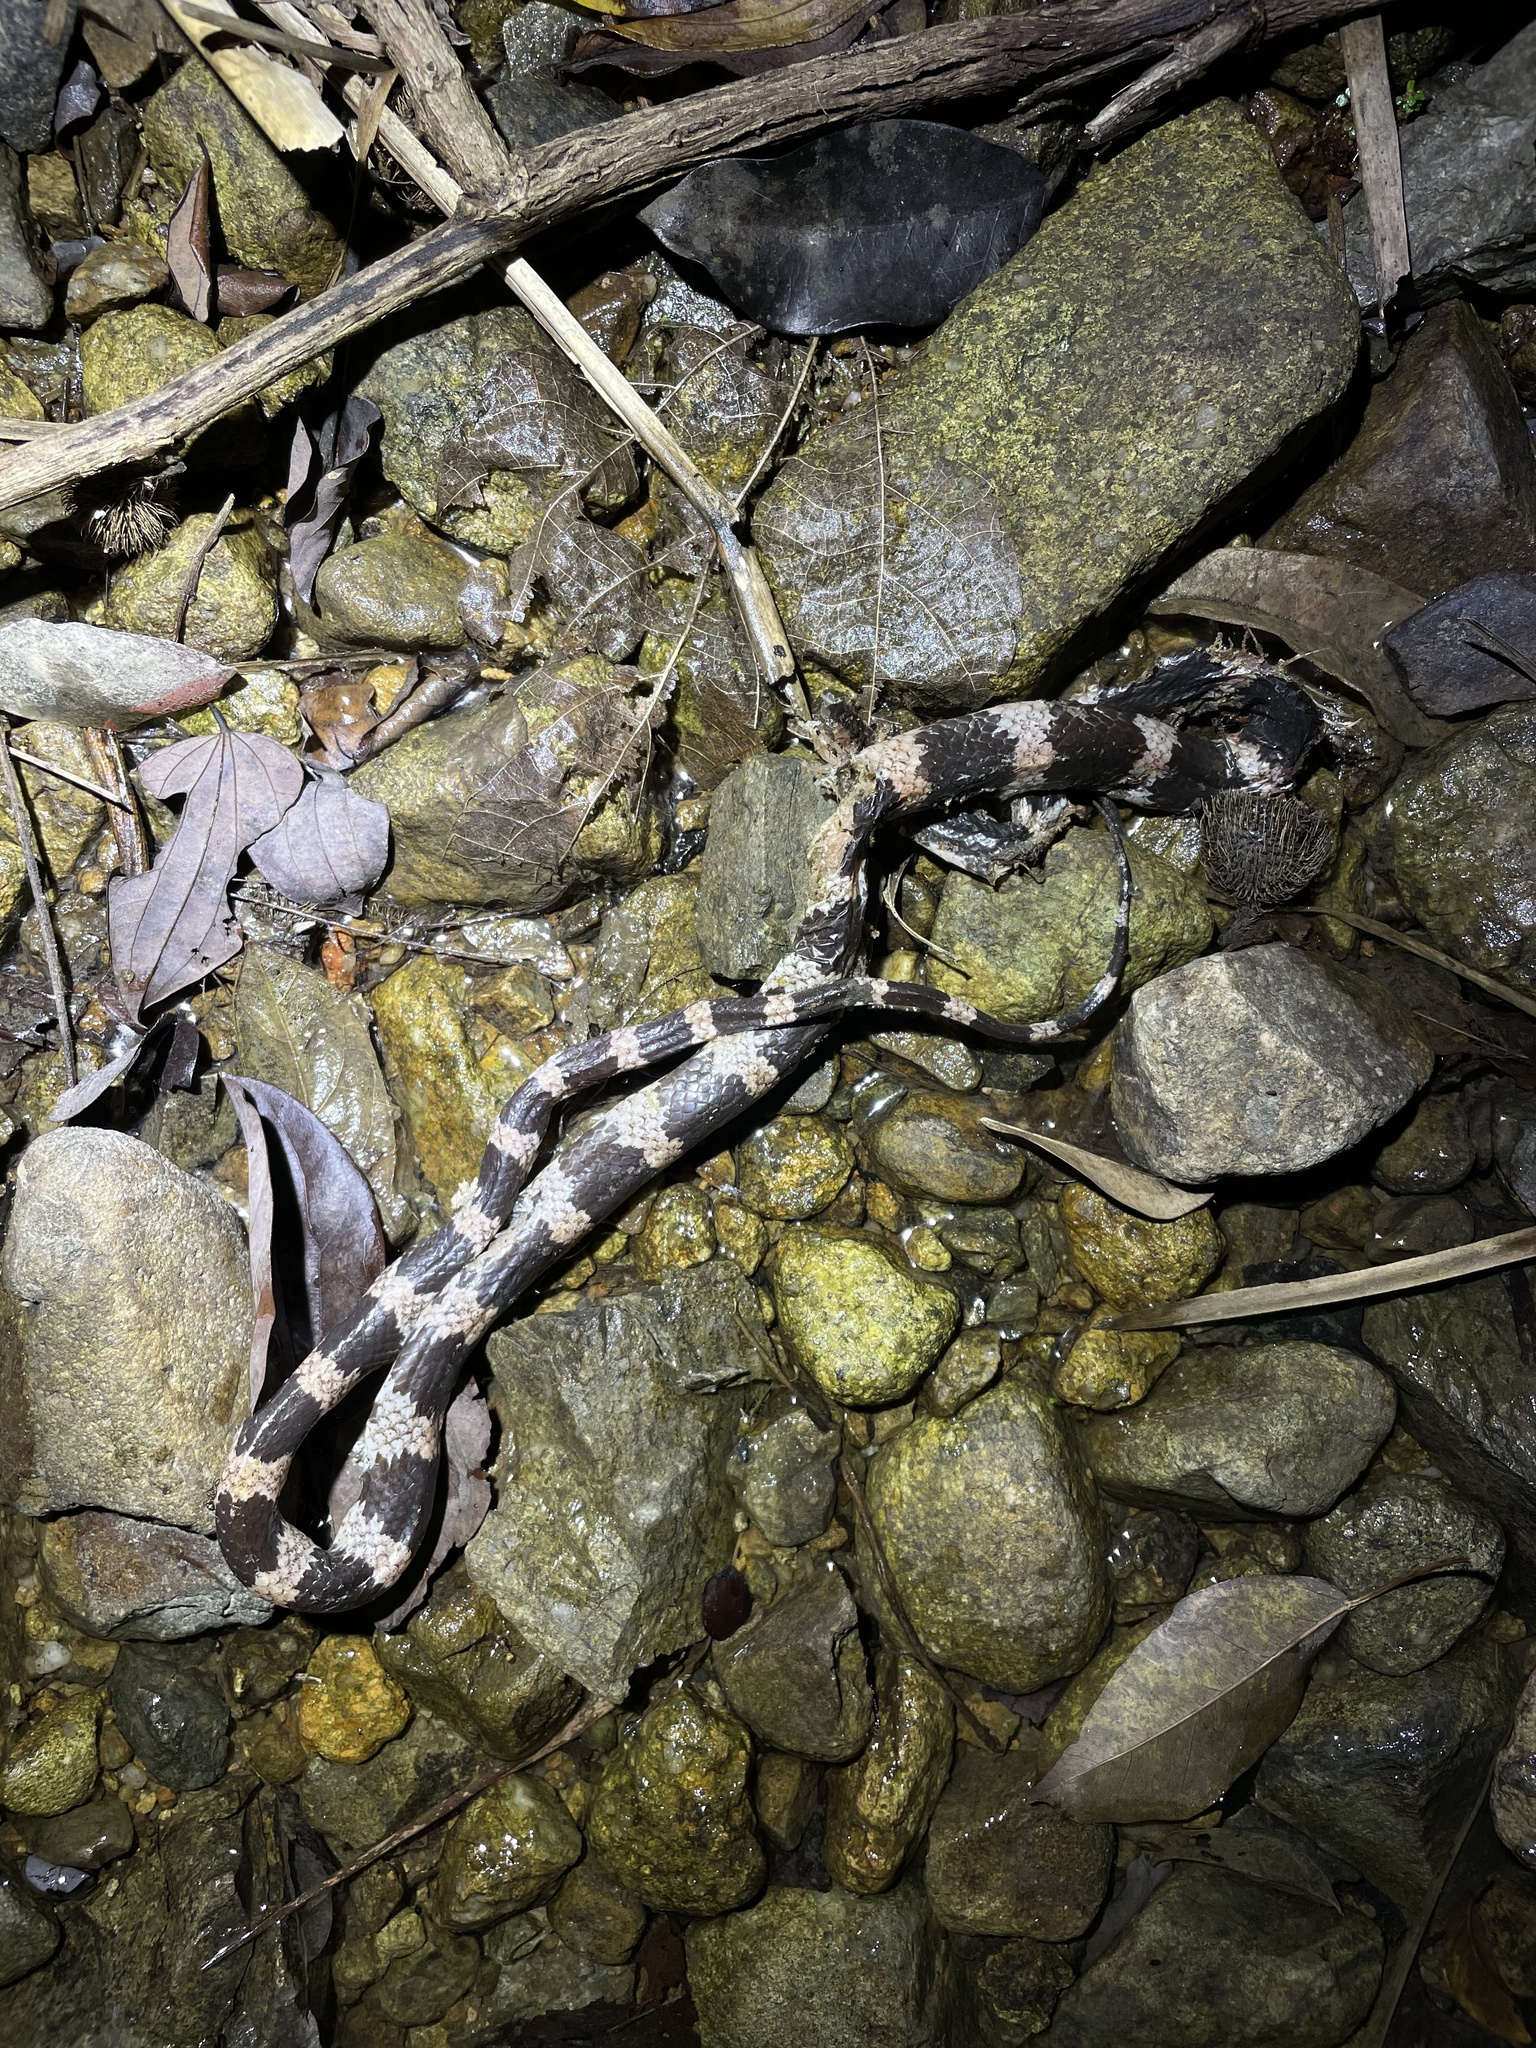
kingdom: Animalia
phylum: Chordata
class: Squamata
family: Colubridae
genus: Lycodon
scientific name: Lycodon futsingensis
